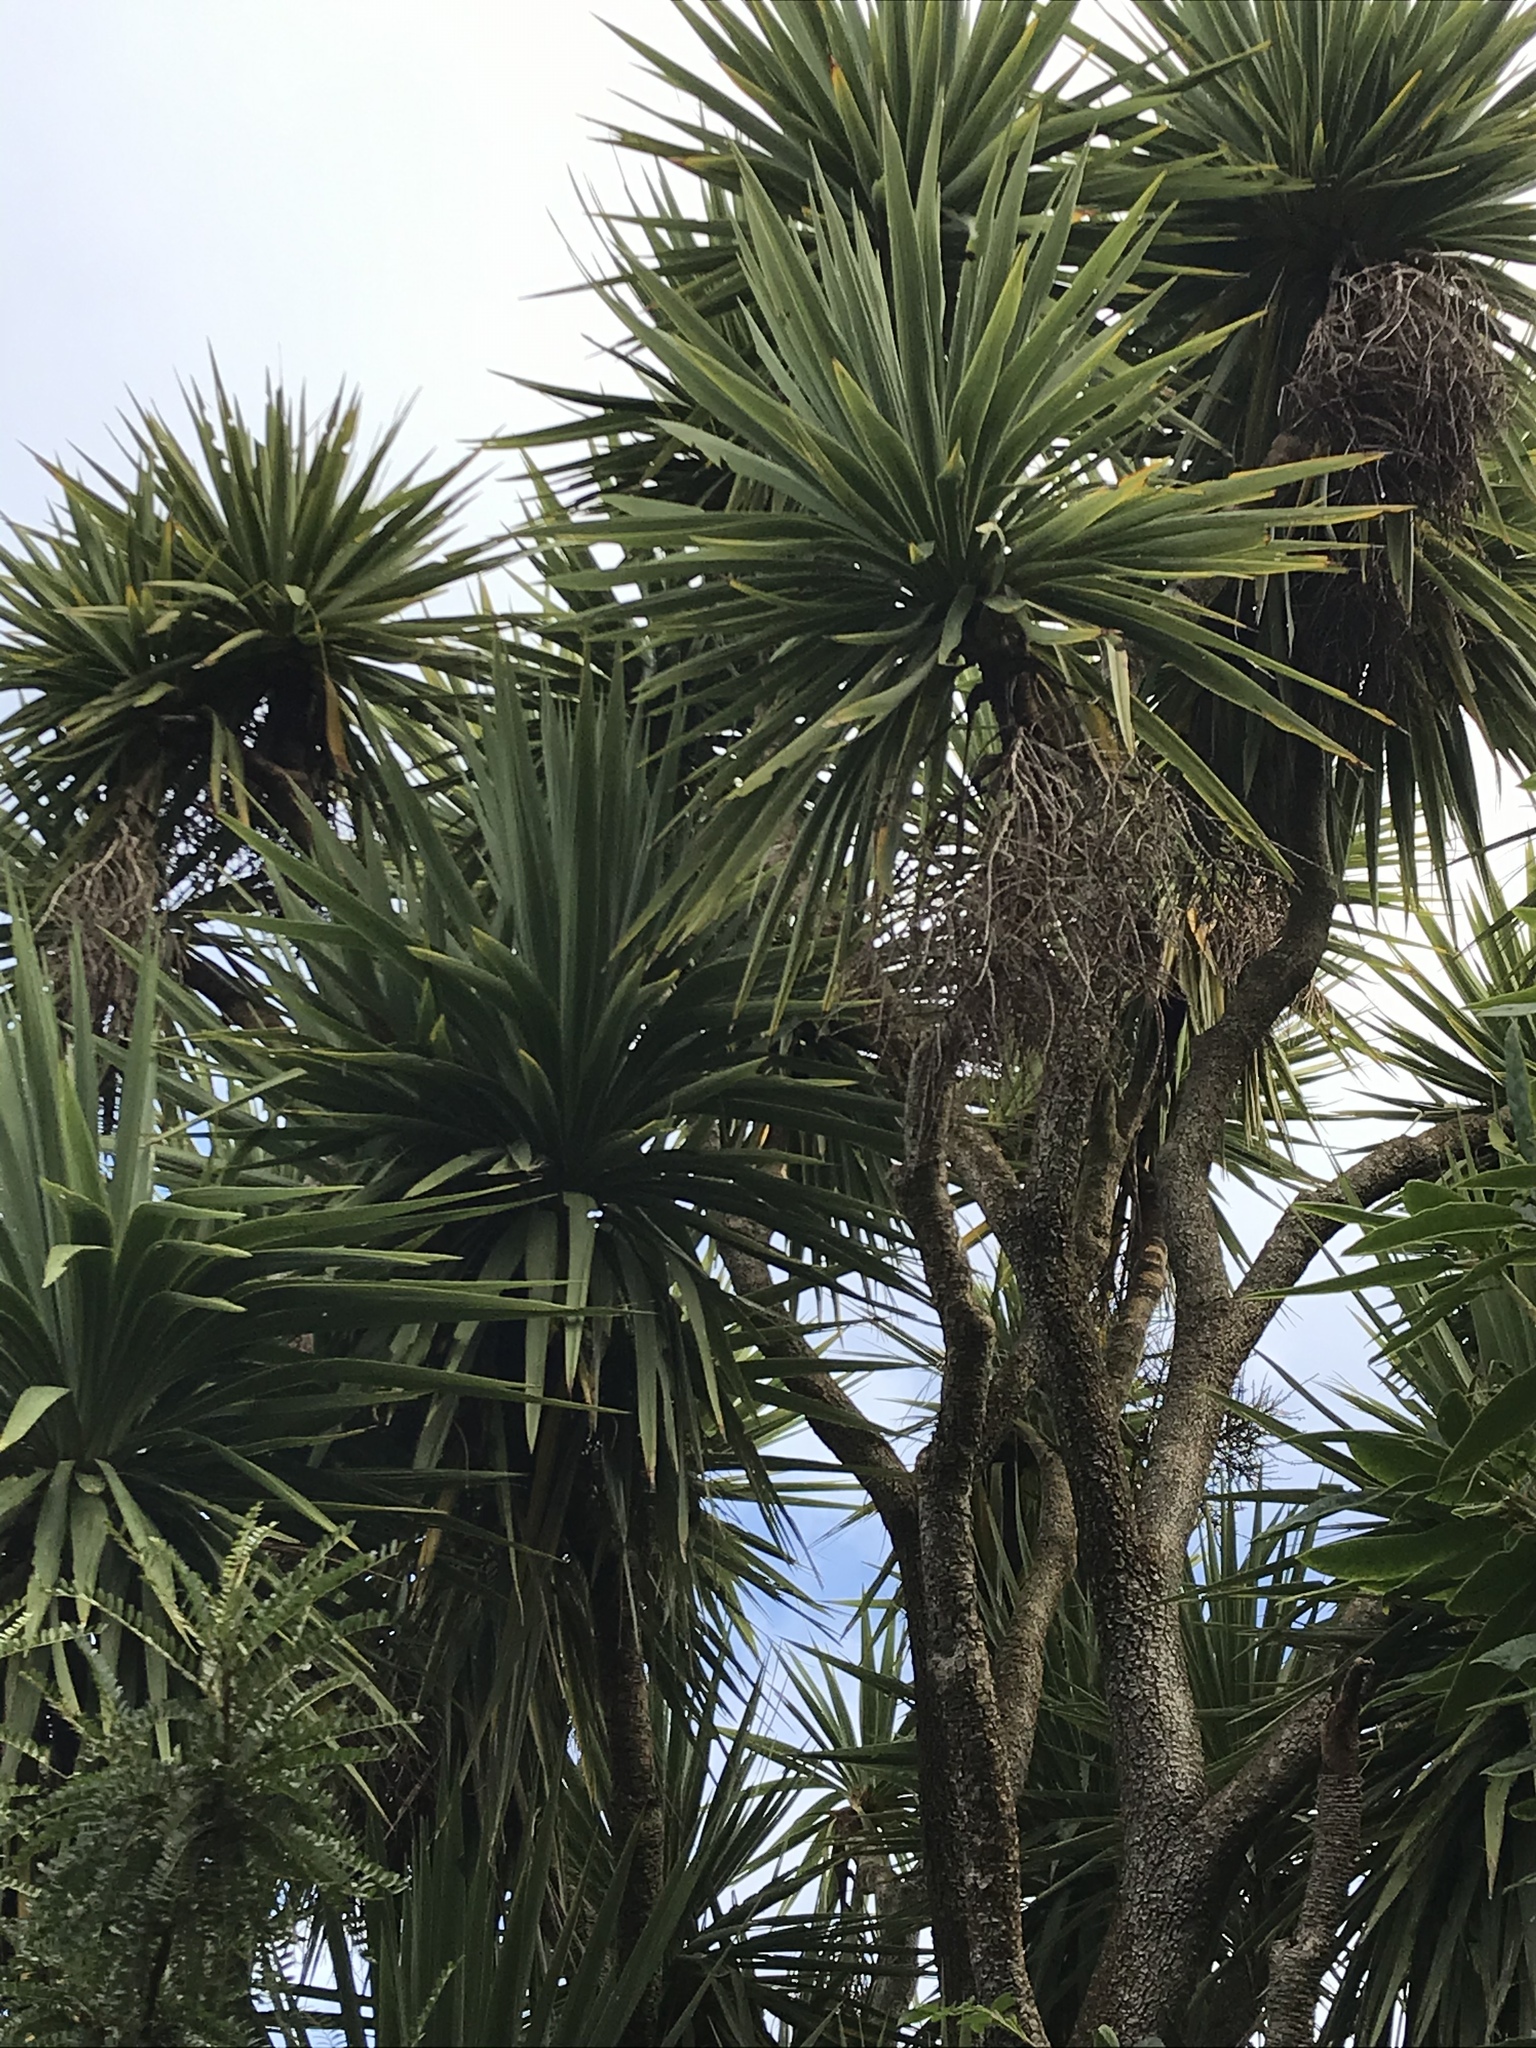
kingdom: Plantae
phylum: Tracheophyta
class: Liliopsida
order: Asparagales
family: Asparagaceae
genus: Cordyline
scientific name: Cordyline australis
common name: Cabbage-palm
